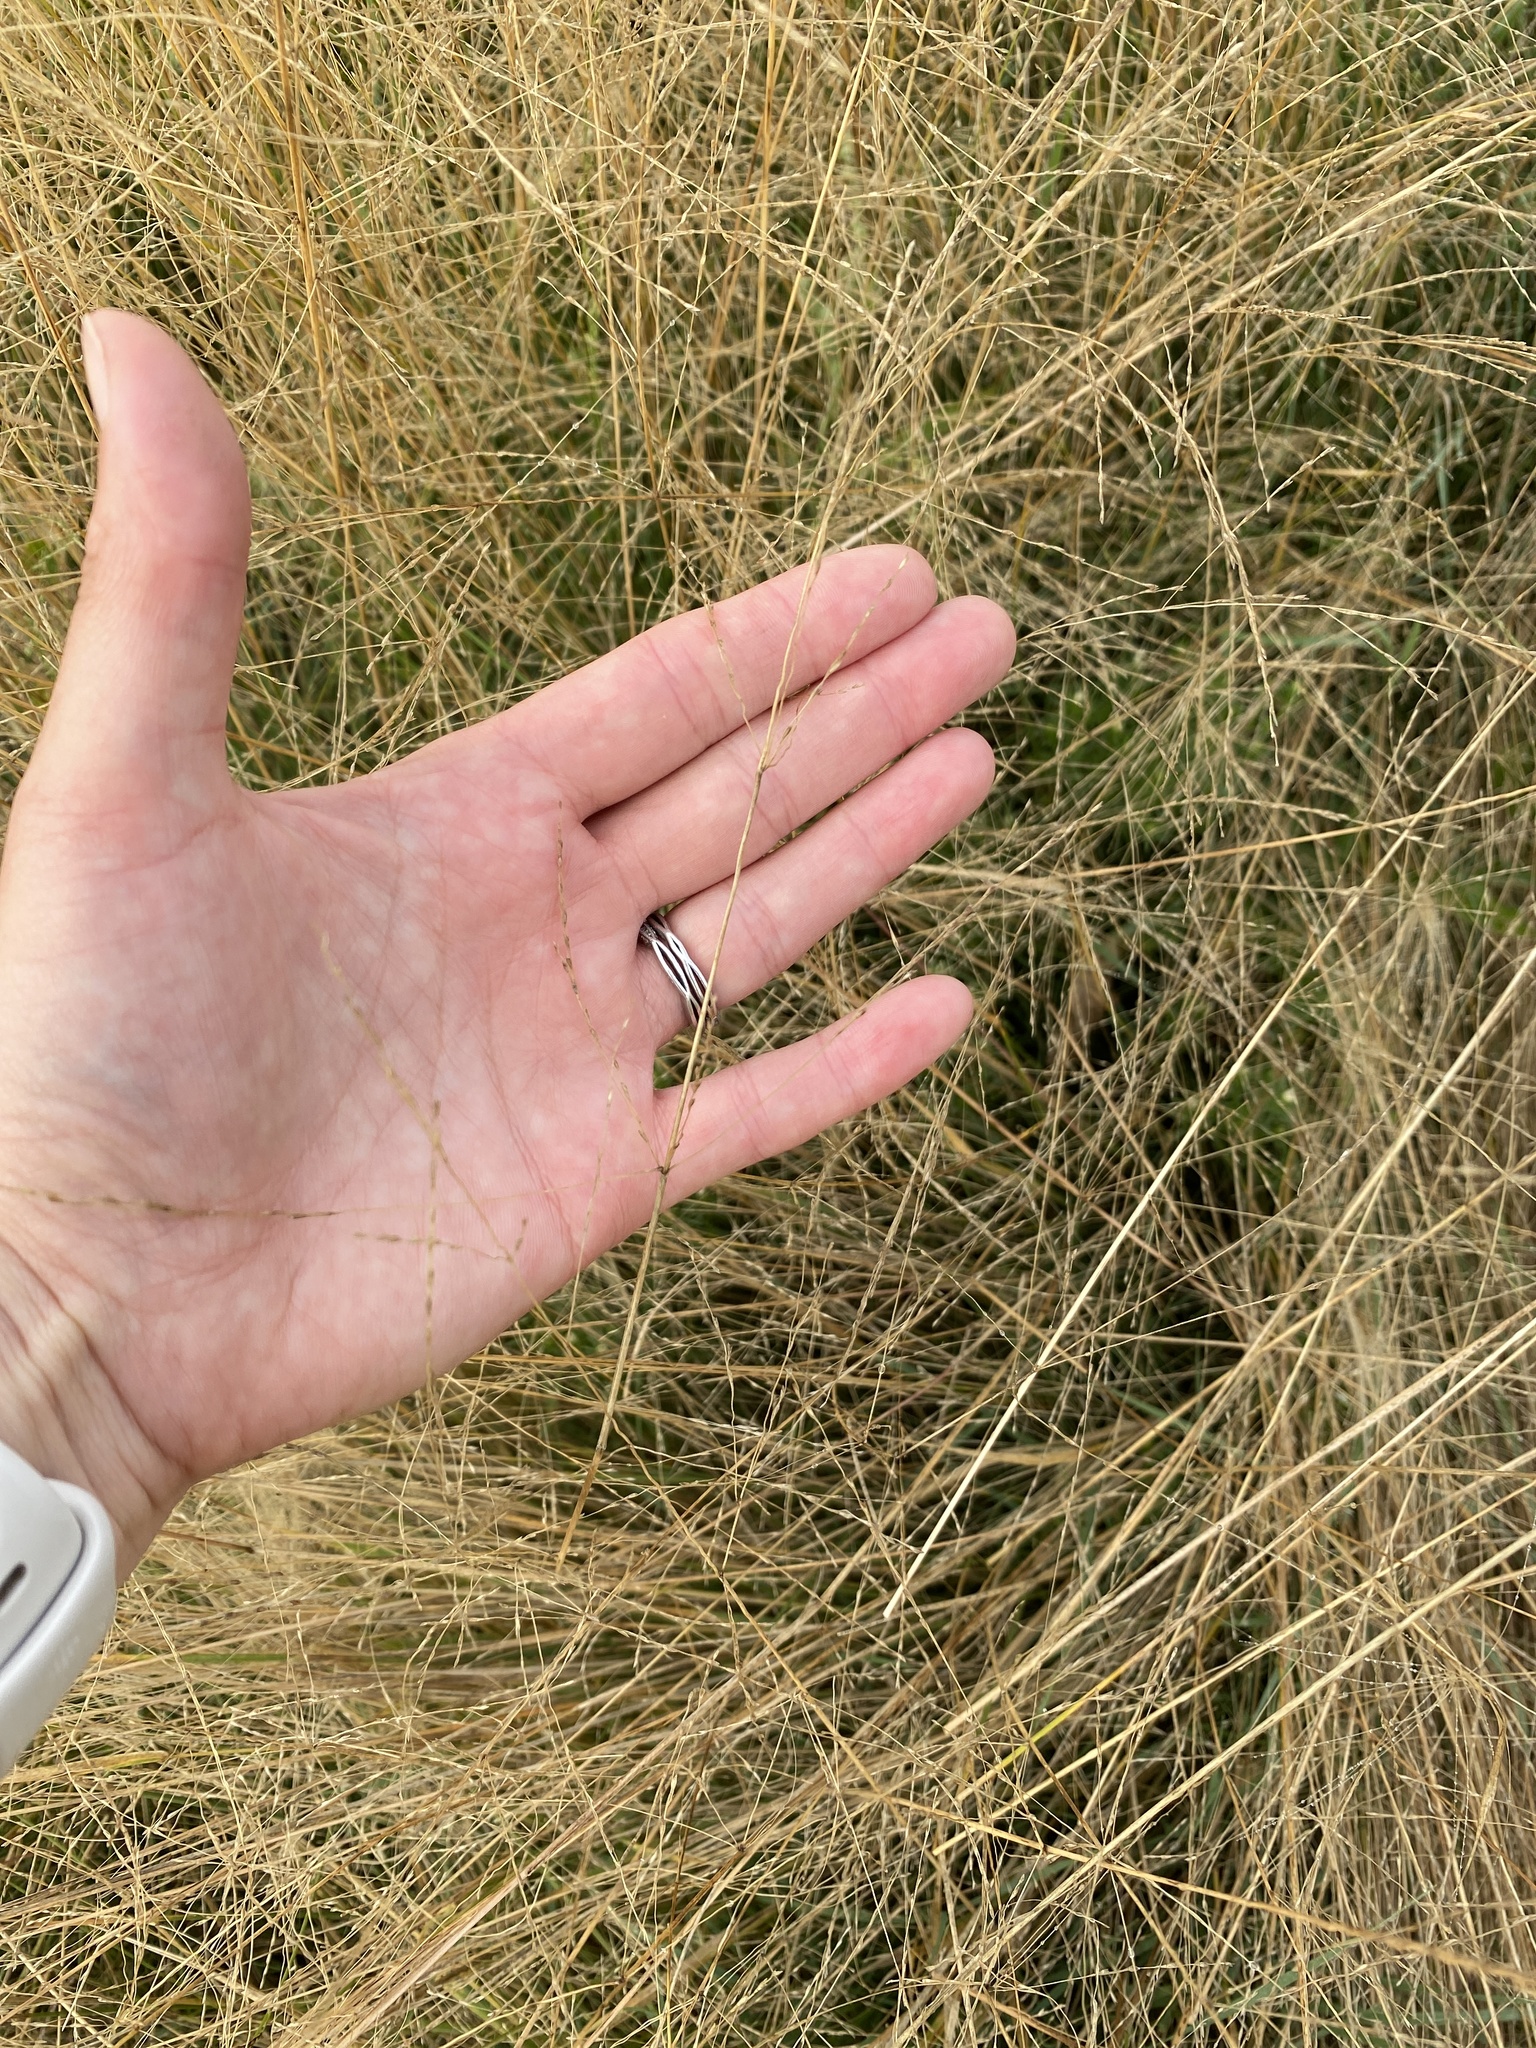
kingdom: Plantae
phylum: Tracheophyta
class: Liliopsida
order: Poales
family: Poaceae
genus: Puccinellia
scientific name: Puccinellia nuttalliana
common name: Nuttall's alkali grass
